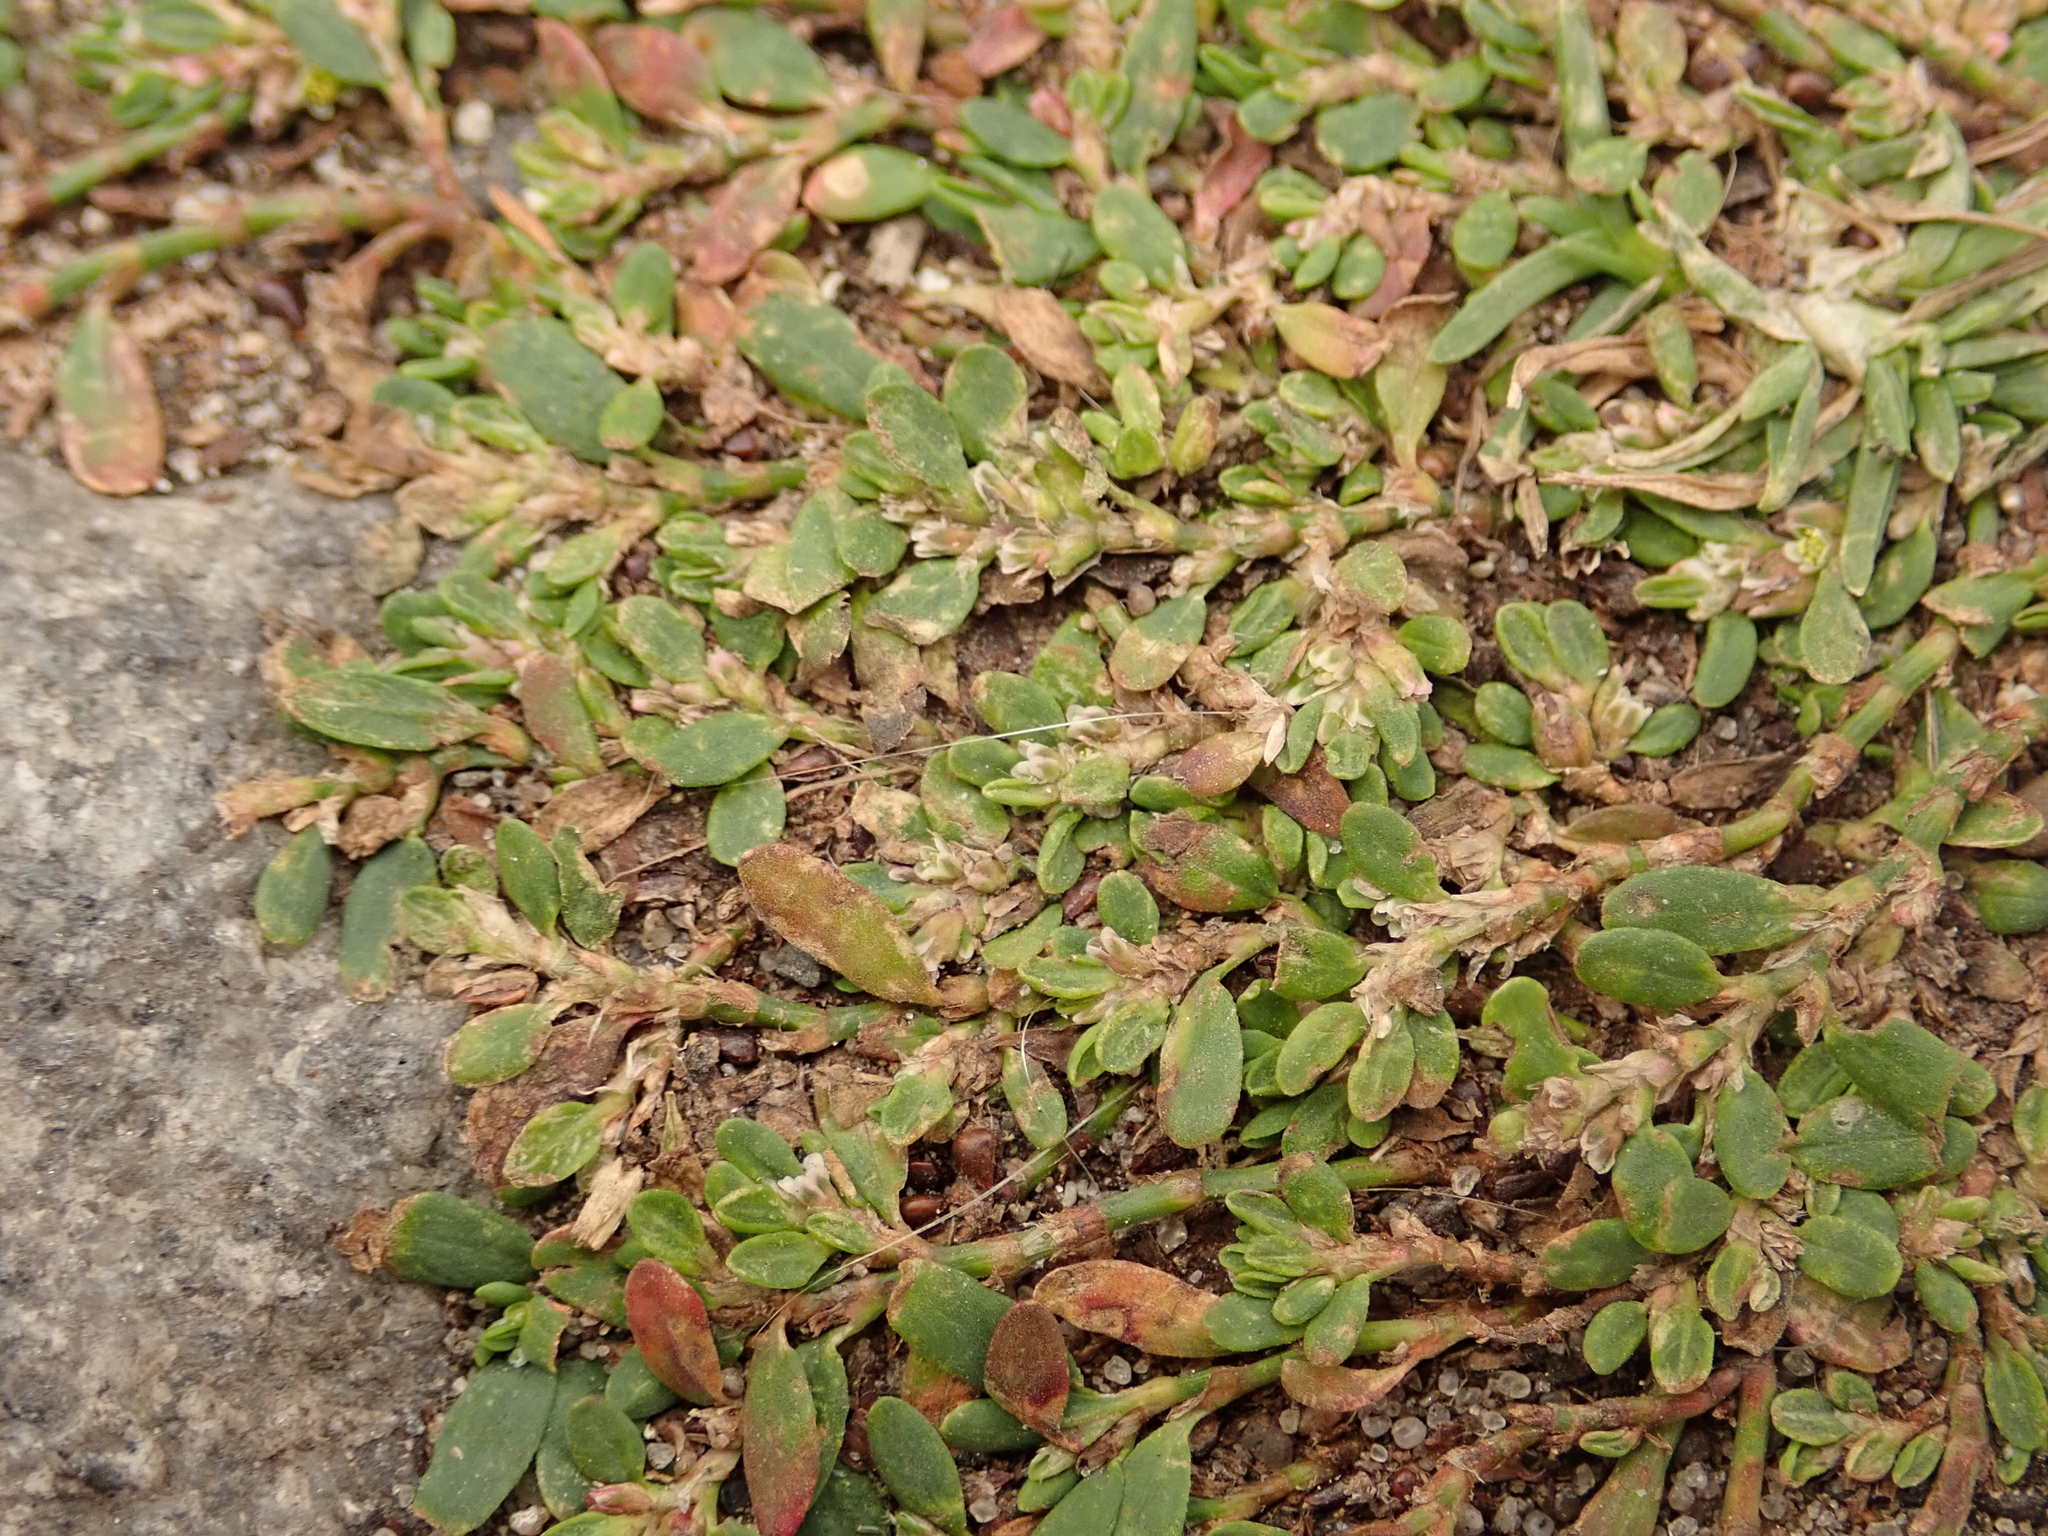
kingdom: Plantae
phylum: Tracheophyta
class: Magnoliopsida
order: Caryophyllales
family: Polygonaceae
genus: Polygonum
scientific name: Polygonum arenastrum
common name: Equal-leaved knotgrass
